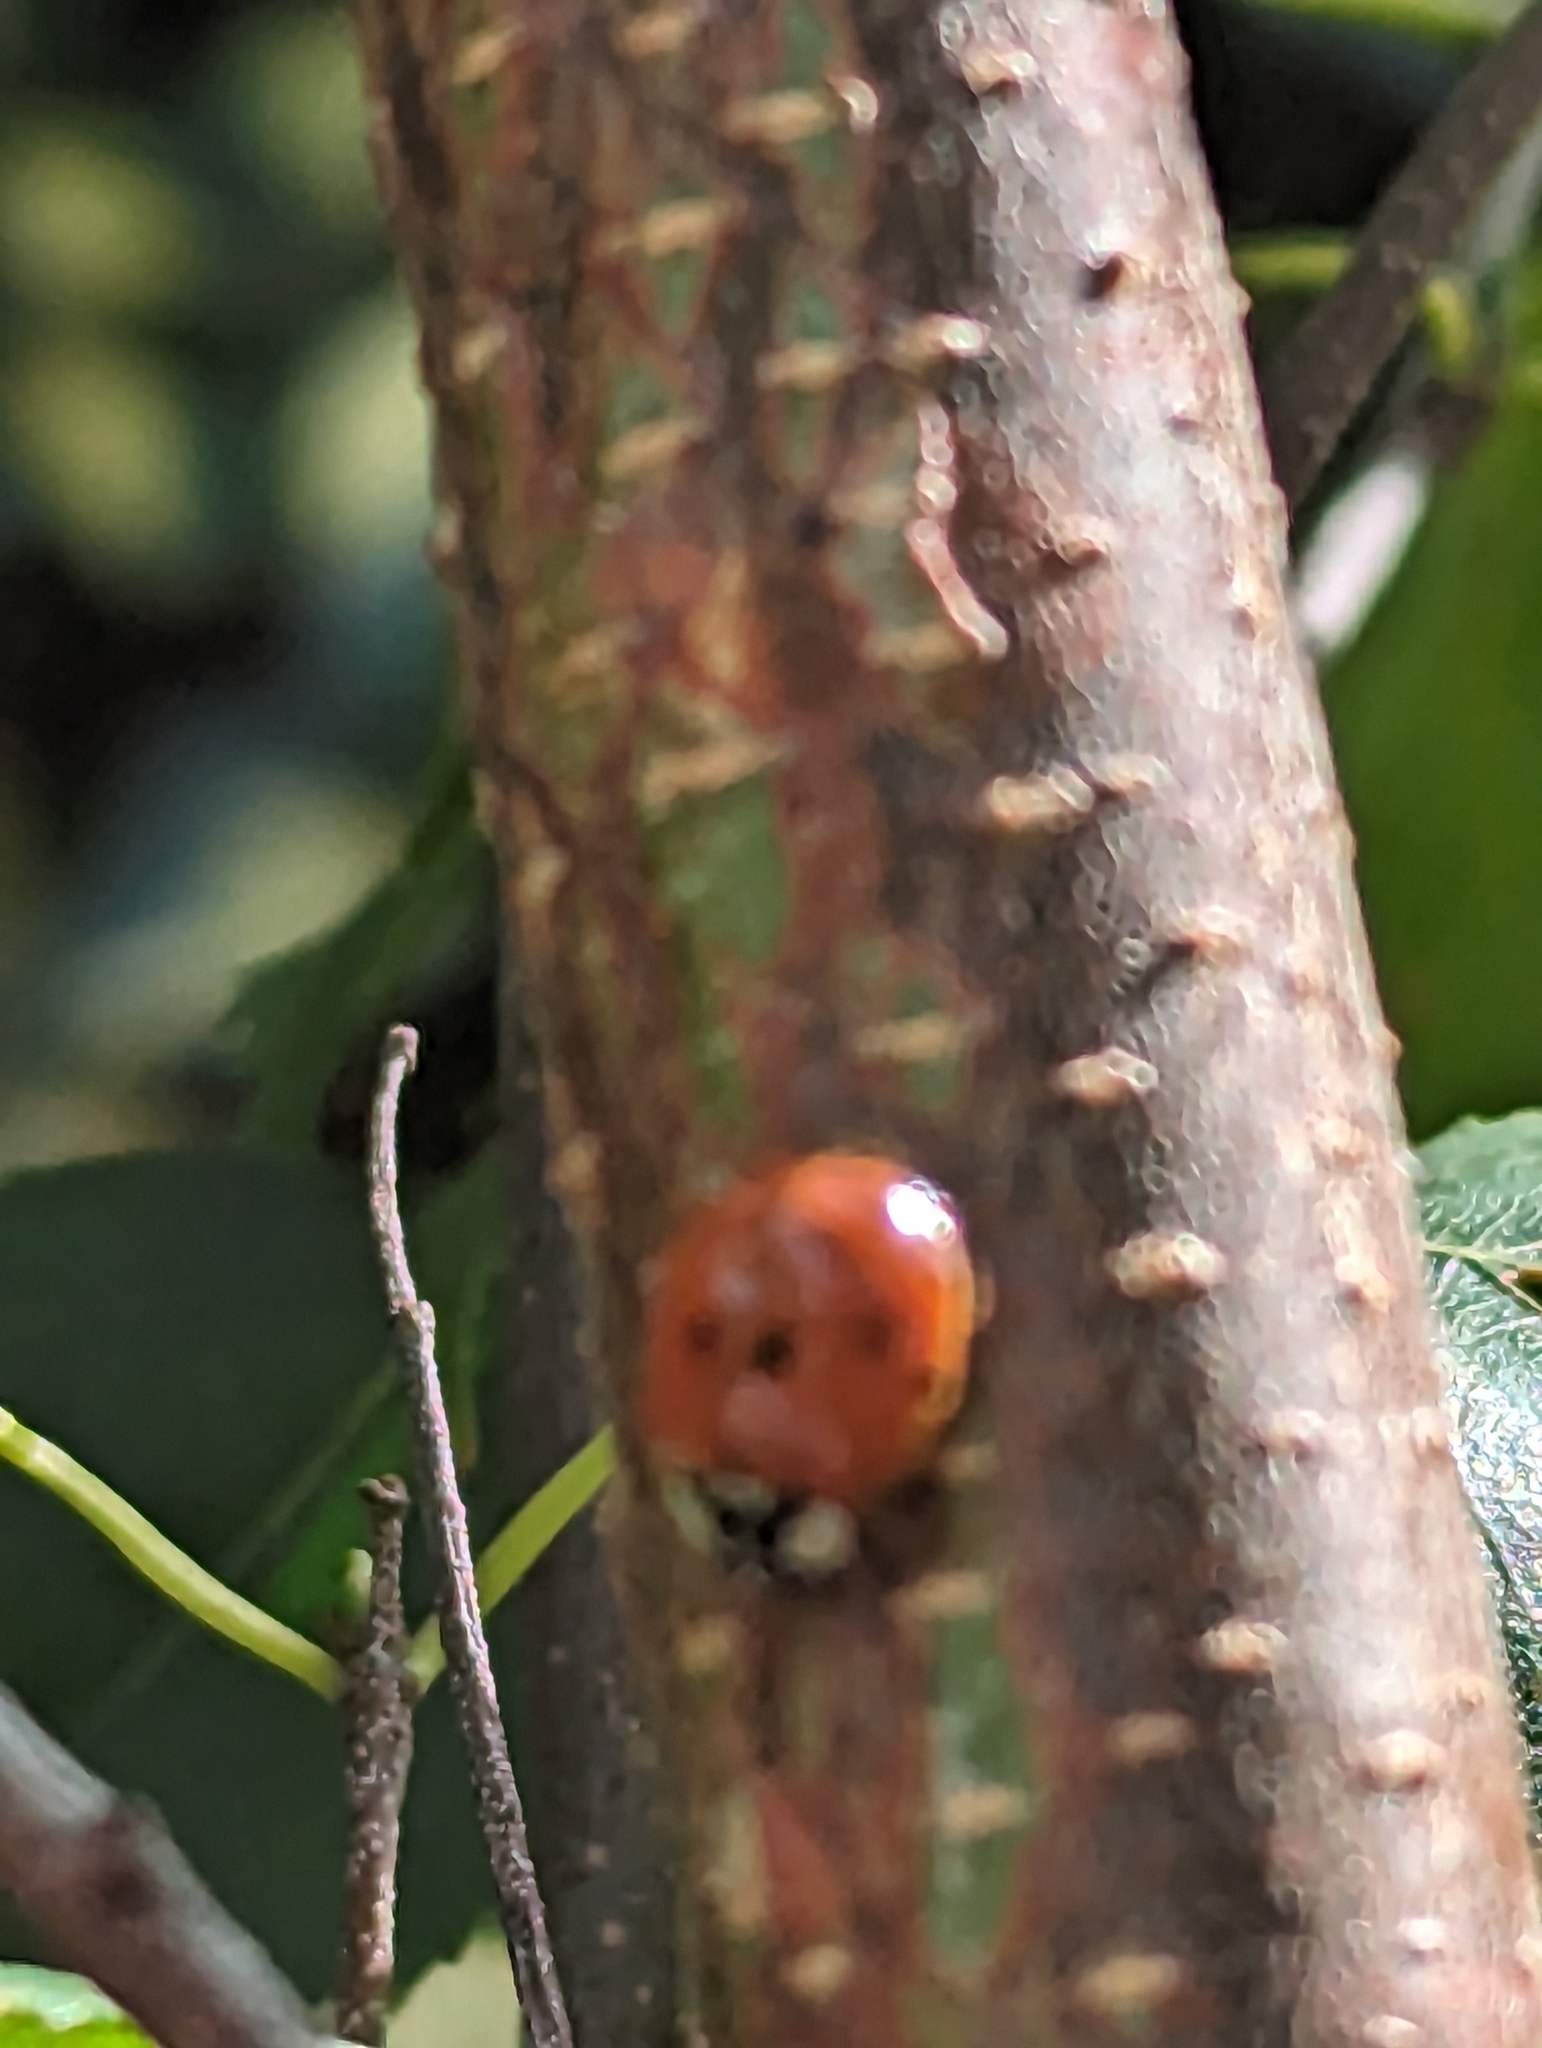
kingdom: Animalia
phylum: Arthropoda
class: Insecta
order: Coleoptera
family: Coccinellidae
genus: Harmonia
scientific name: Harmonia axyridis
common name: Harlequin ladybird
